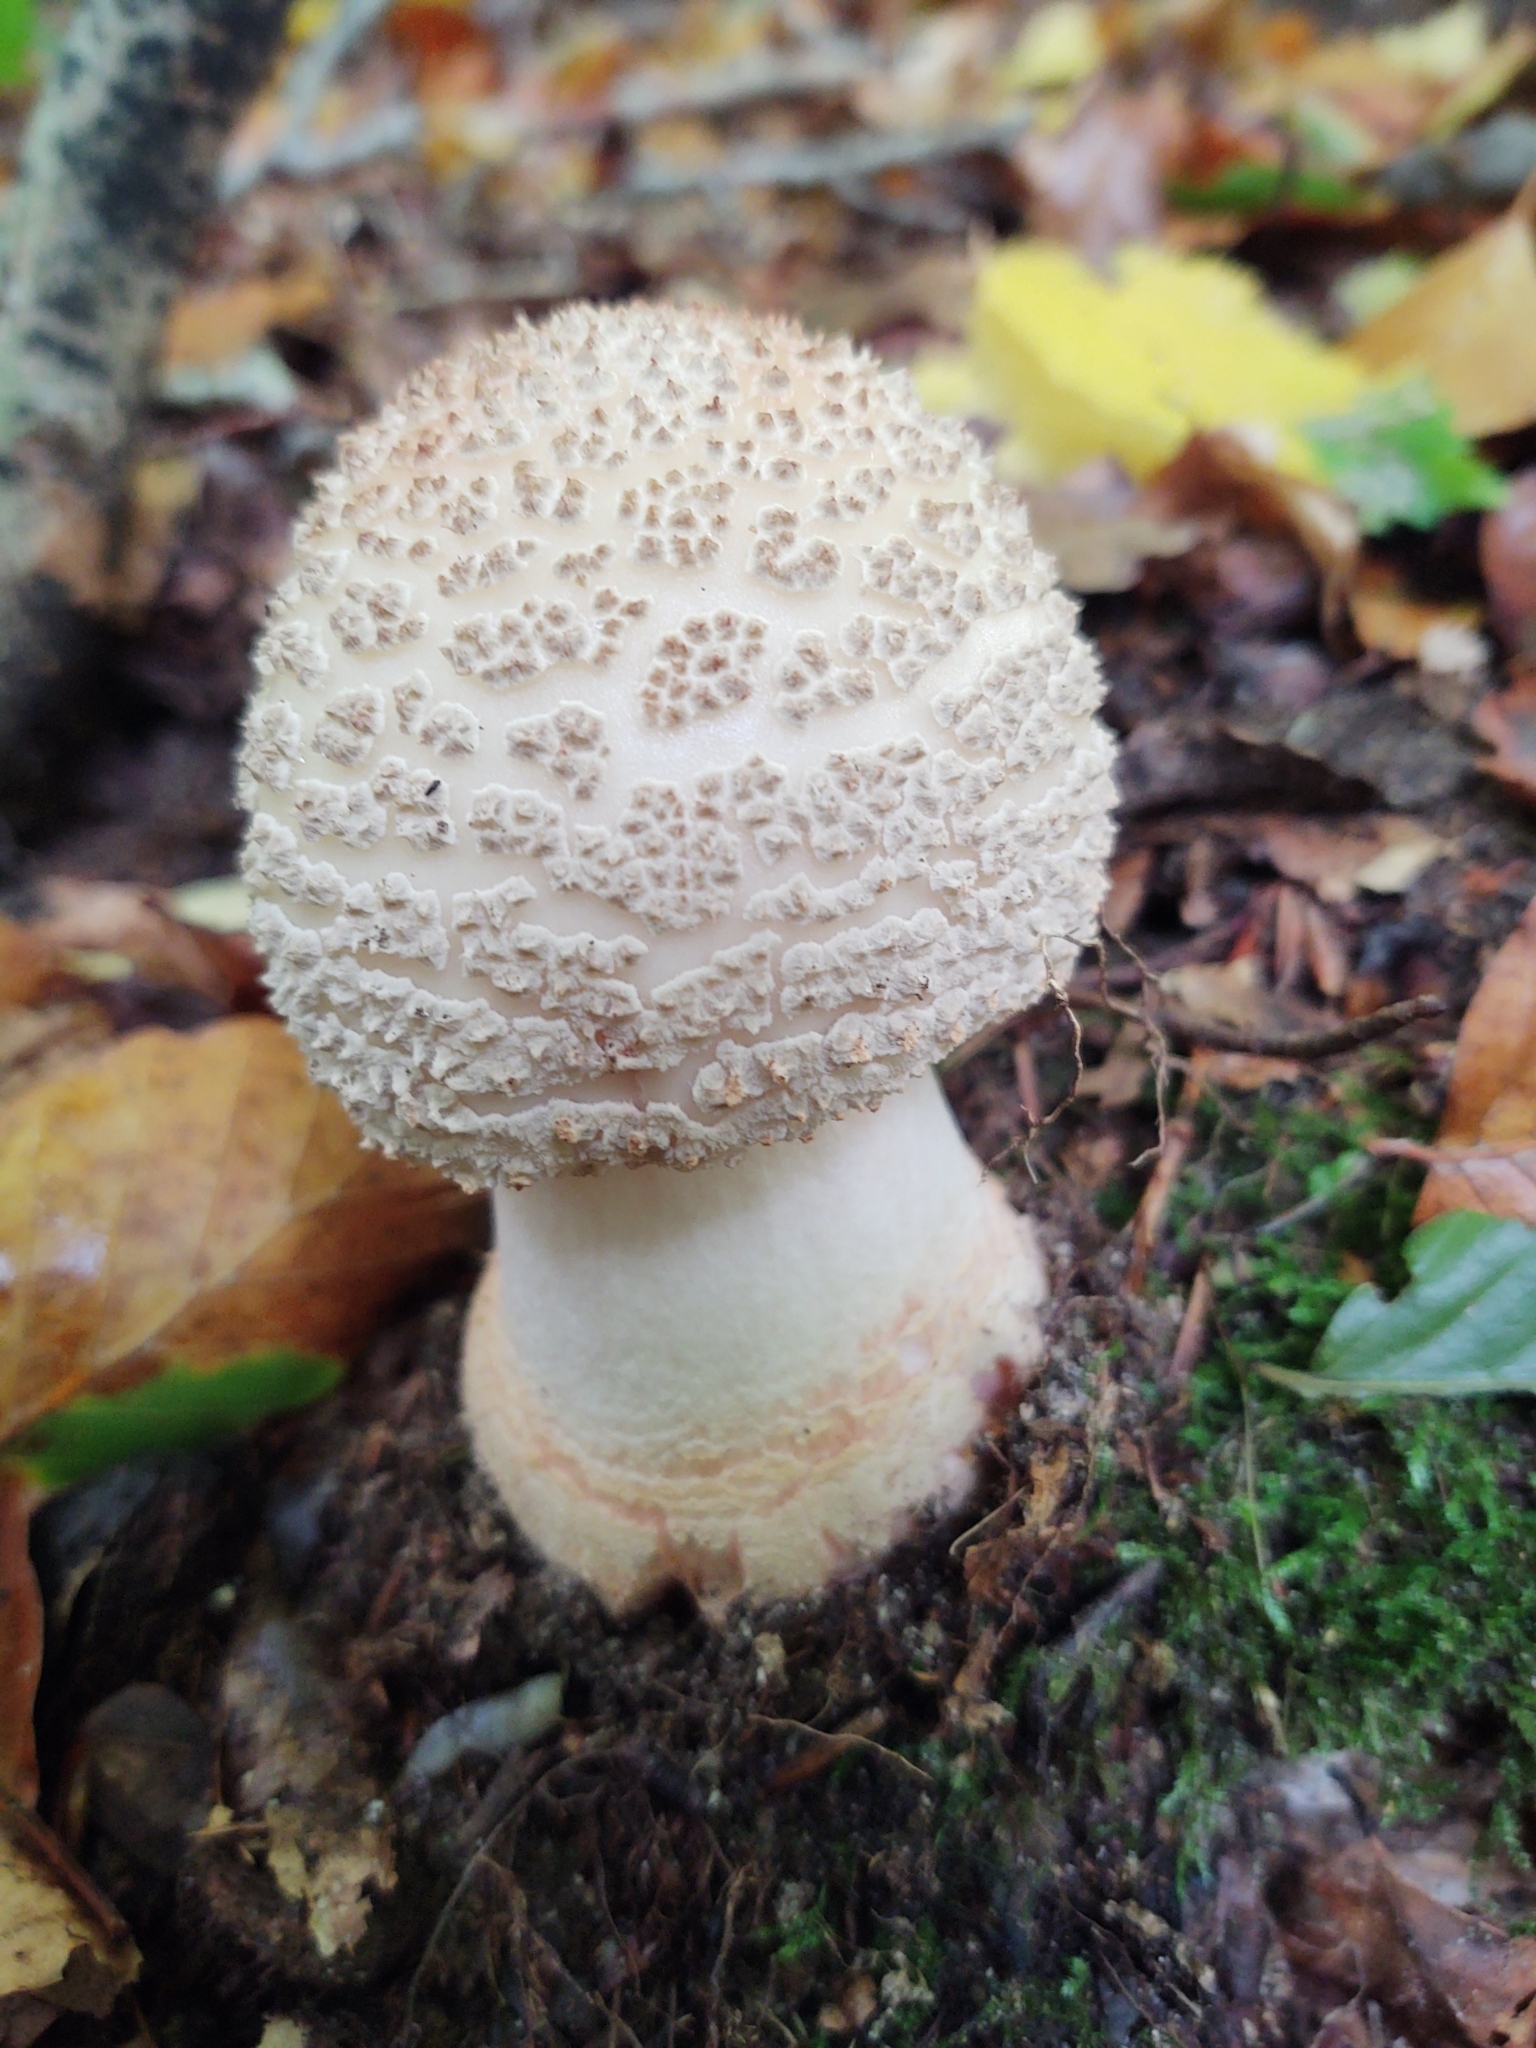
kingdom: Fungi
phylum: Basidiomycota
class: Agaricomycetes
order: Agaricales
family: Amanitaceae
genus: Amanita
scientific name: Amanita rubescens
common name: Blusher
